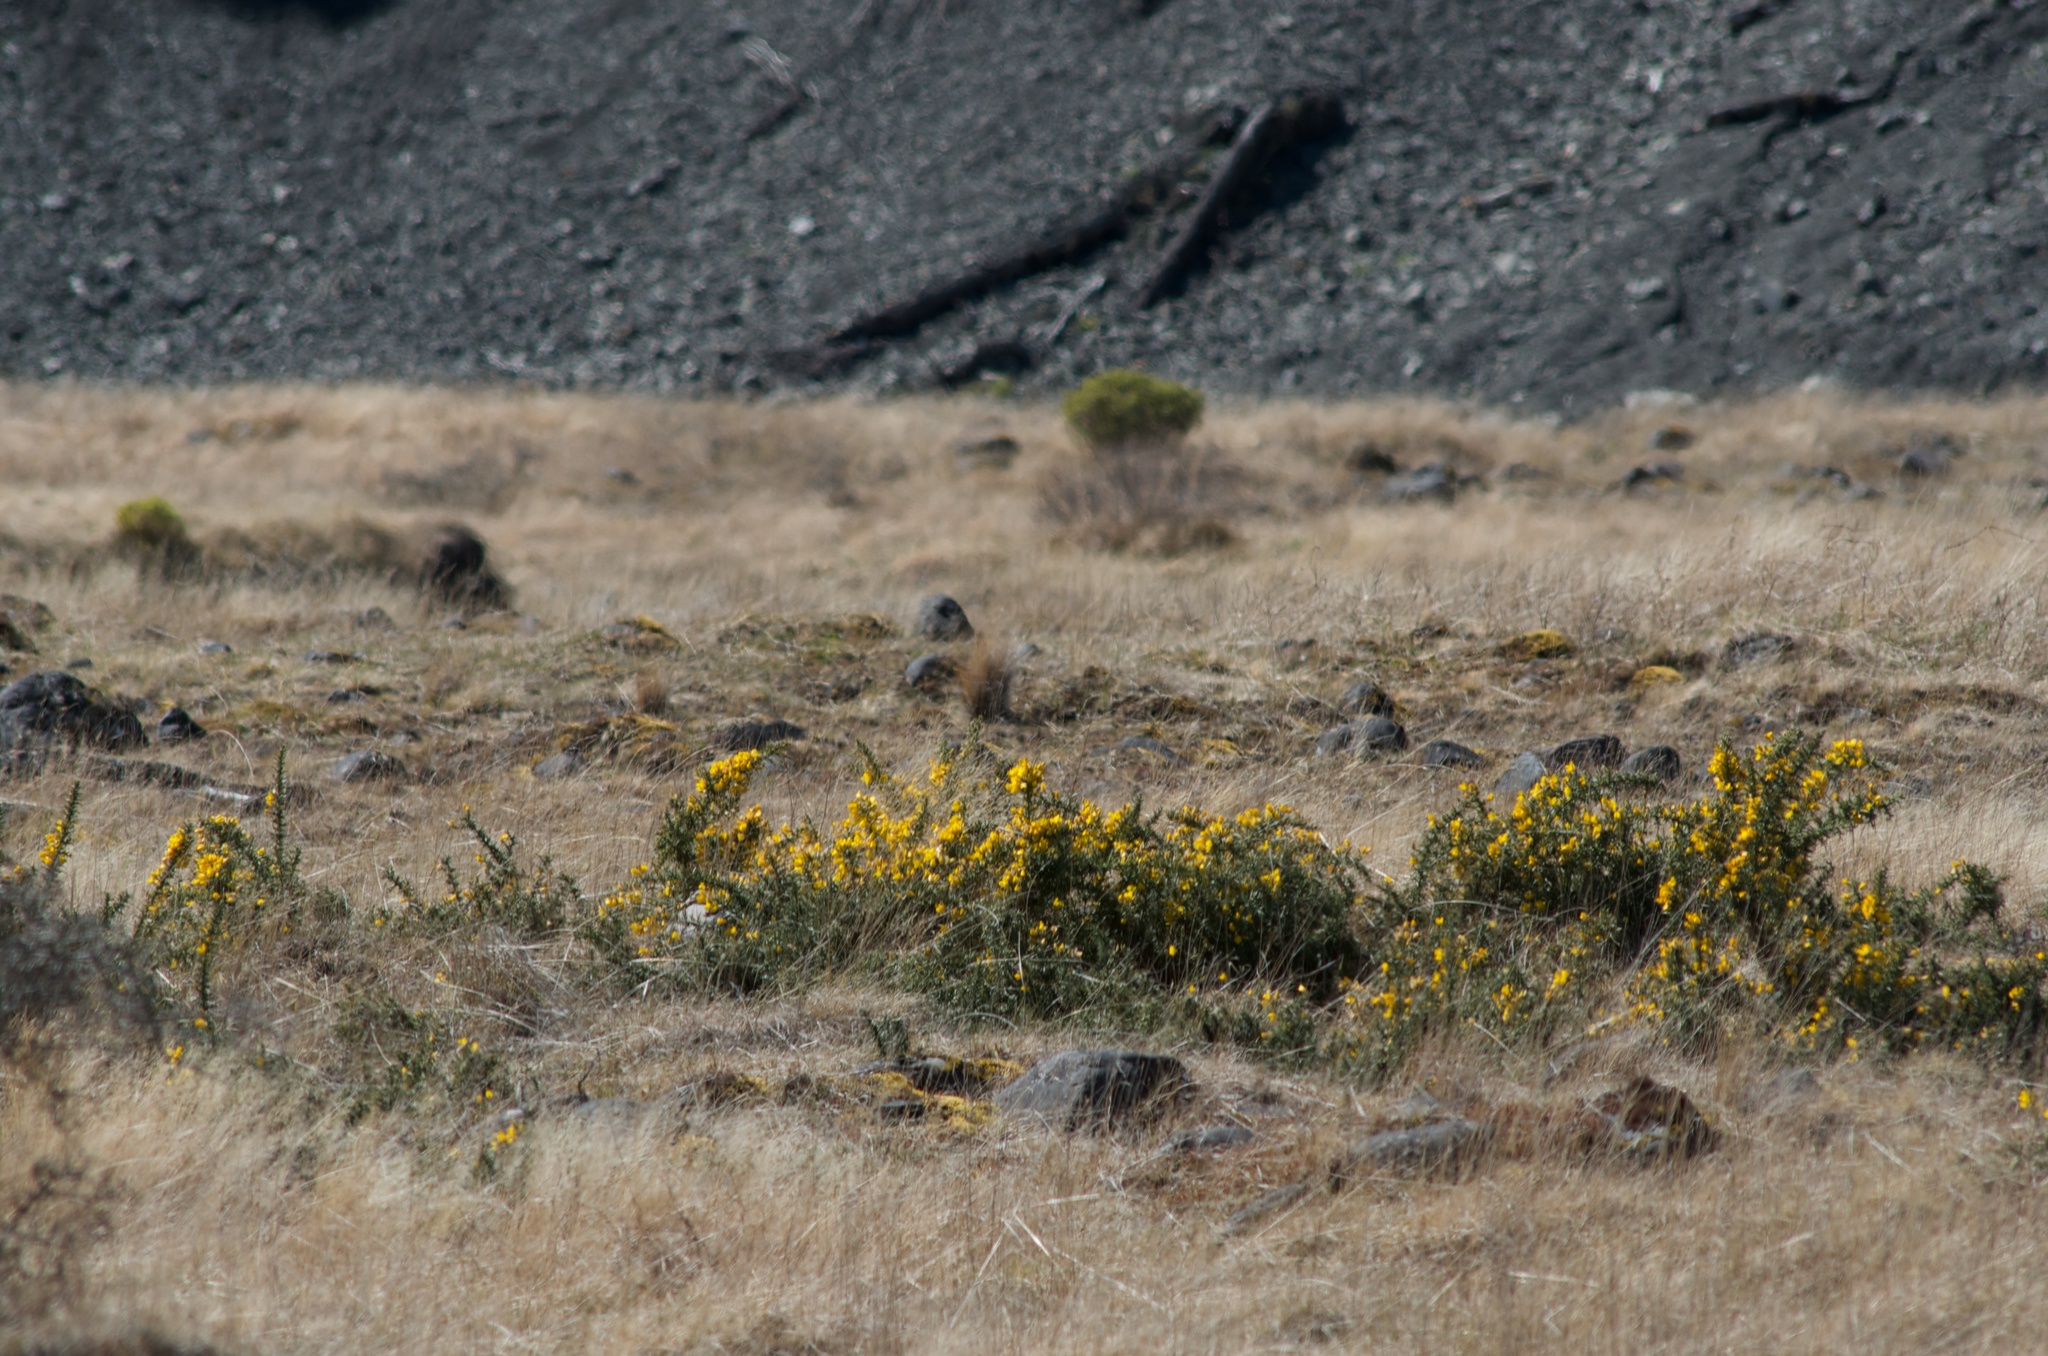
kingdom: Plantae
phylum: Tracheophyta
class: Magnoliopsida
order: Fabales
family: Fabaceae
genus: Ulex
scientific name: Ulex europaeus
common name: Common gorse
